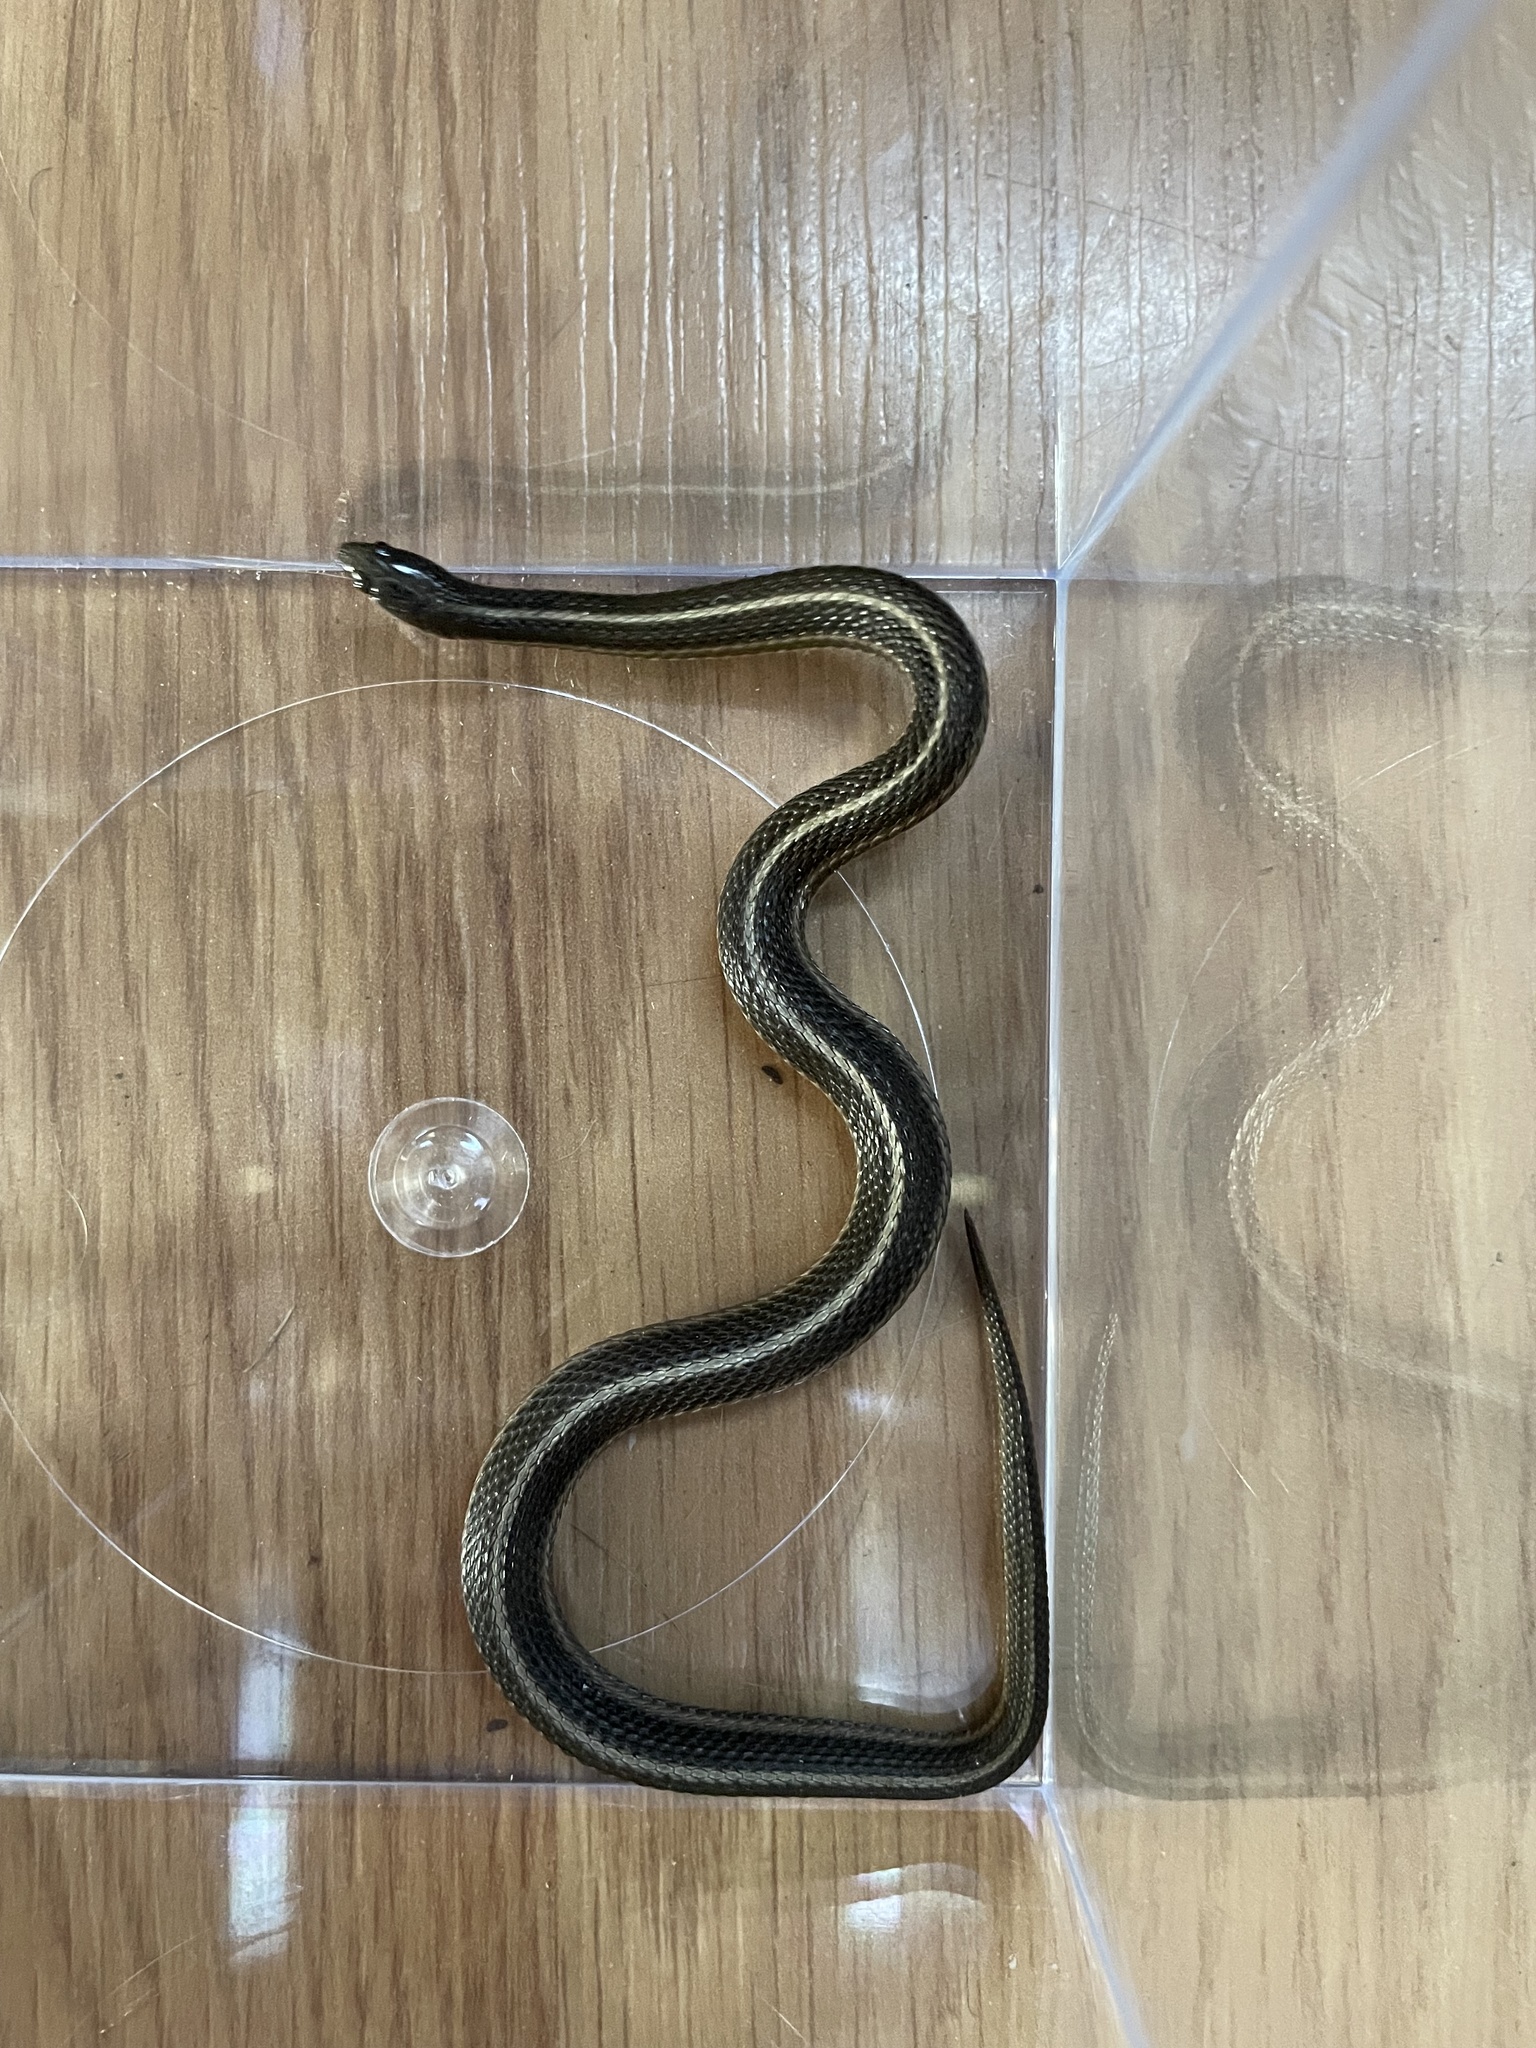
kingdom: Animalia
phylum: Chordata
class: Squamata
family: Colubridae
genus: Tropidoclonion
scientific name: Tropidoclonion lineatum
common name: Lined snake
